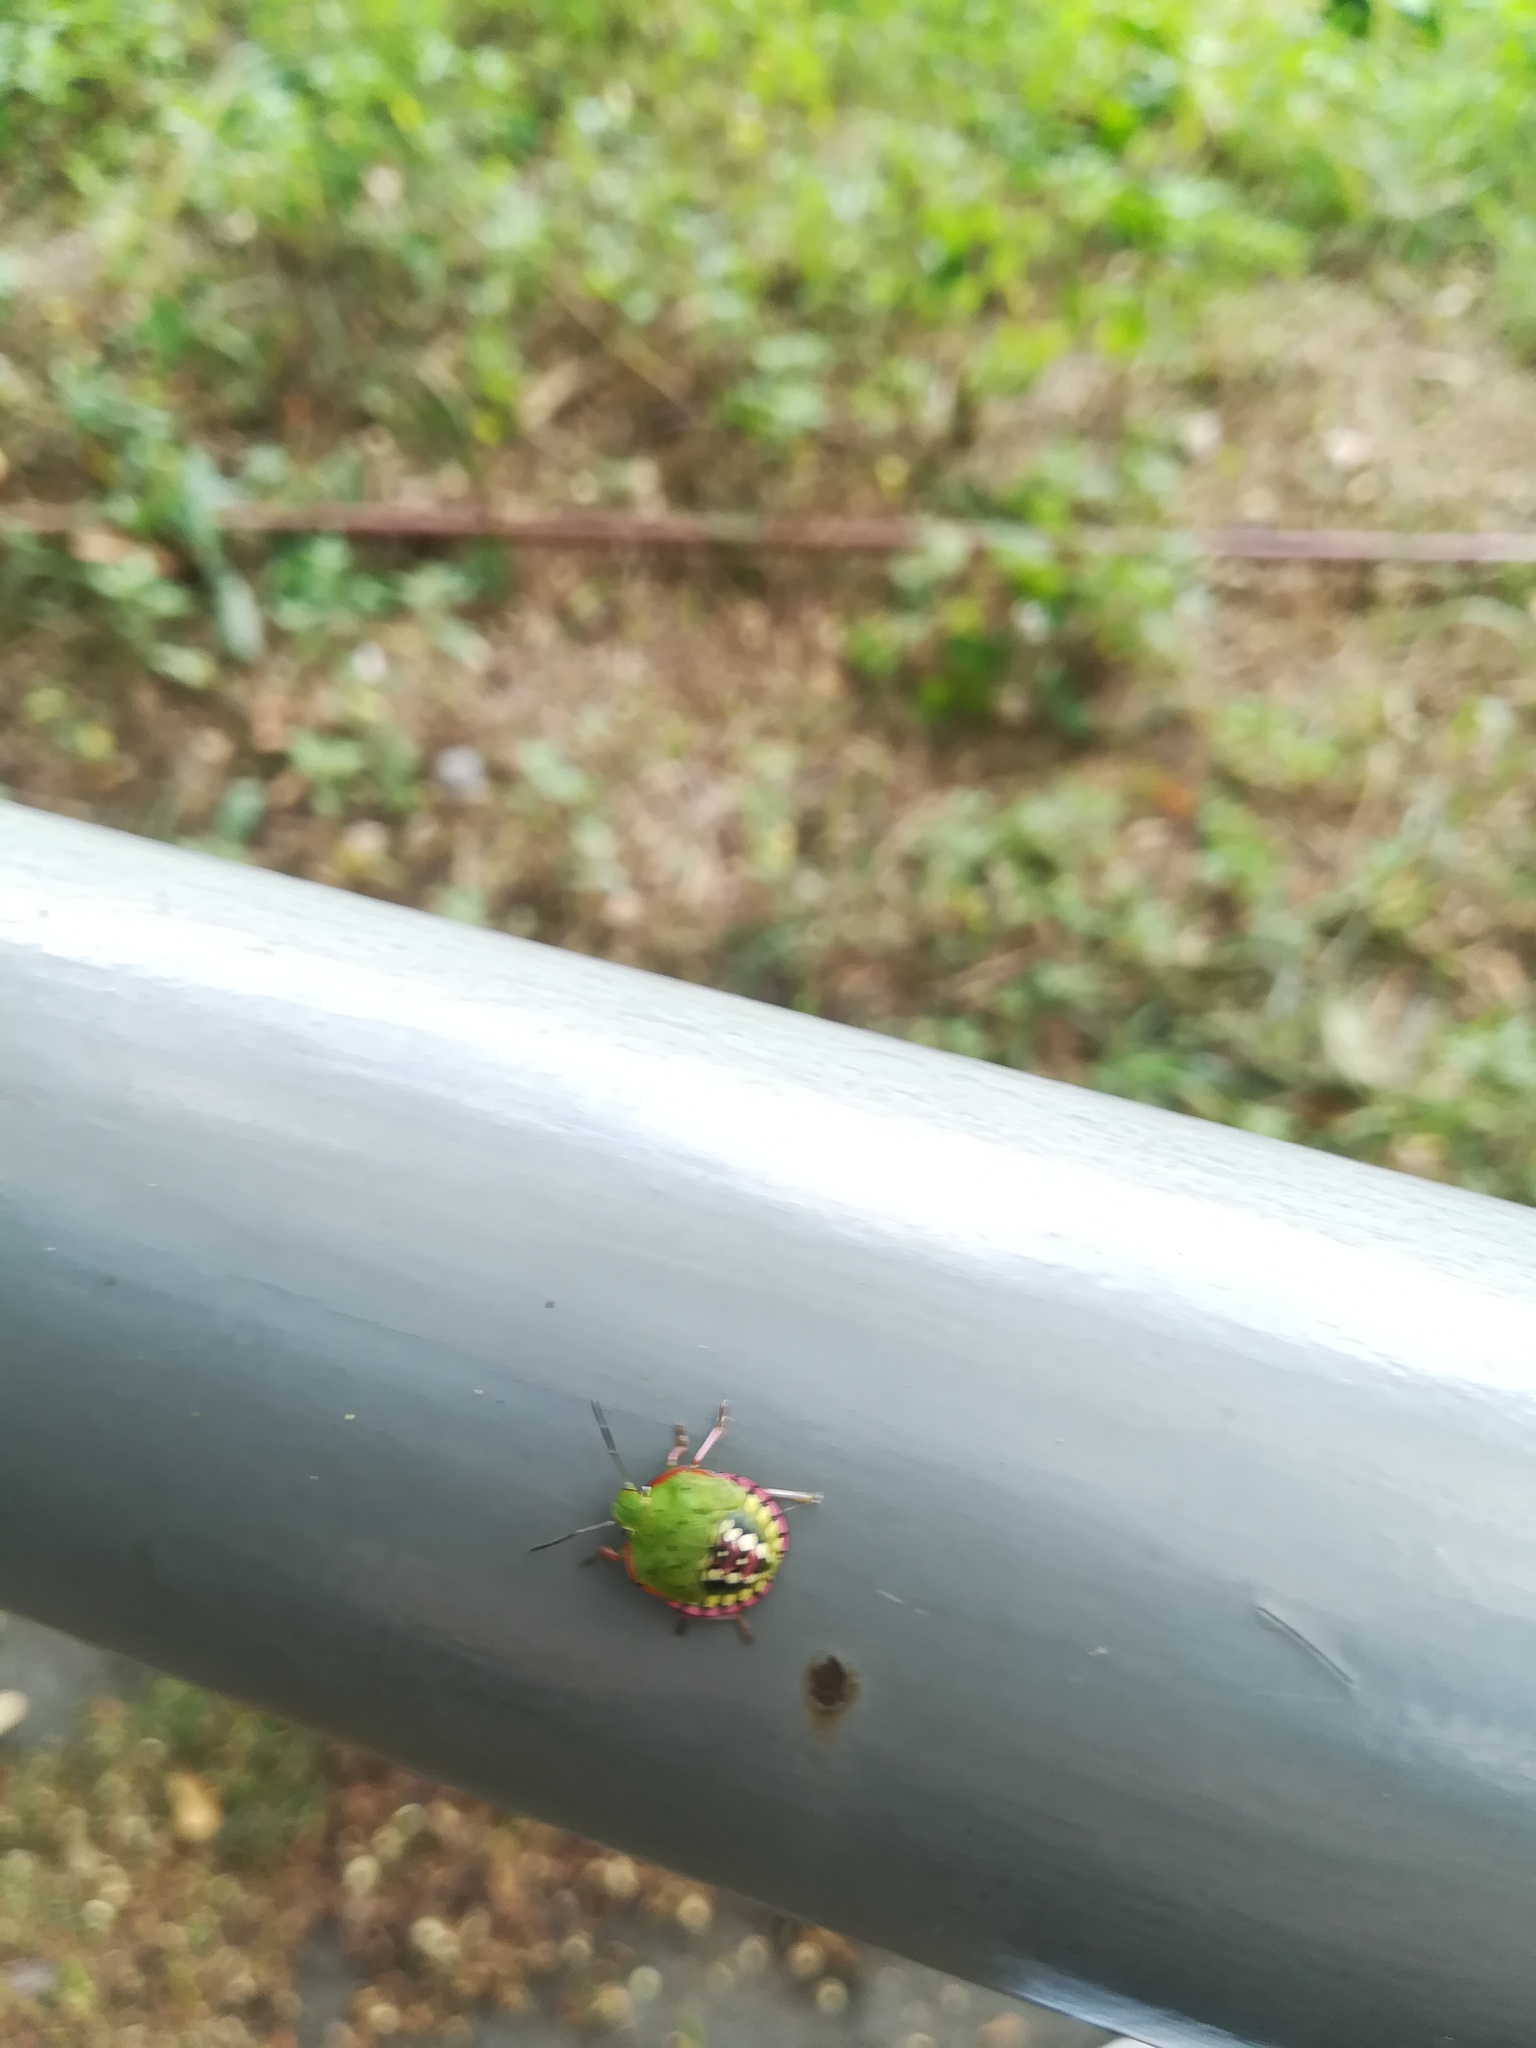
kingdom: Animalia
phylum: Arthropoda
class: Insecta
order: Hemiptera
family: Pentatomidae
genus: Nezara
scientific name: Nezara viridula
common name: Southern green stink bug
